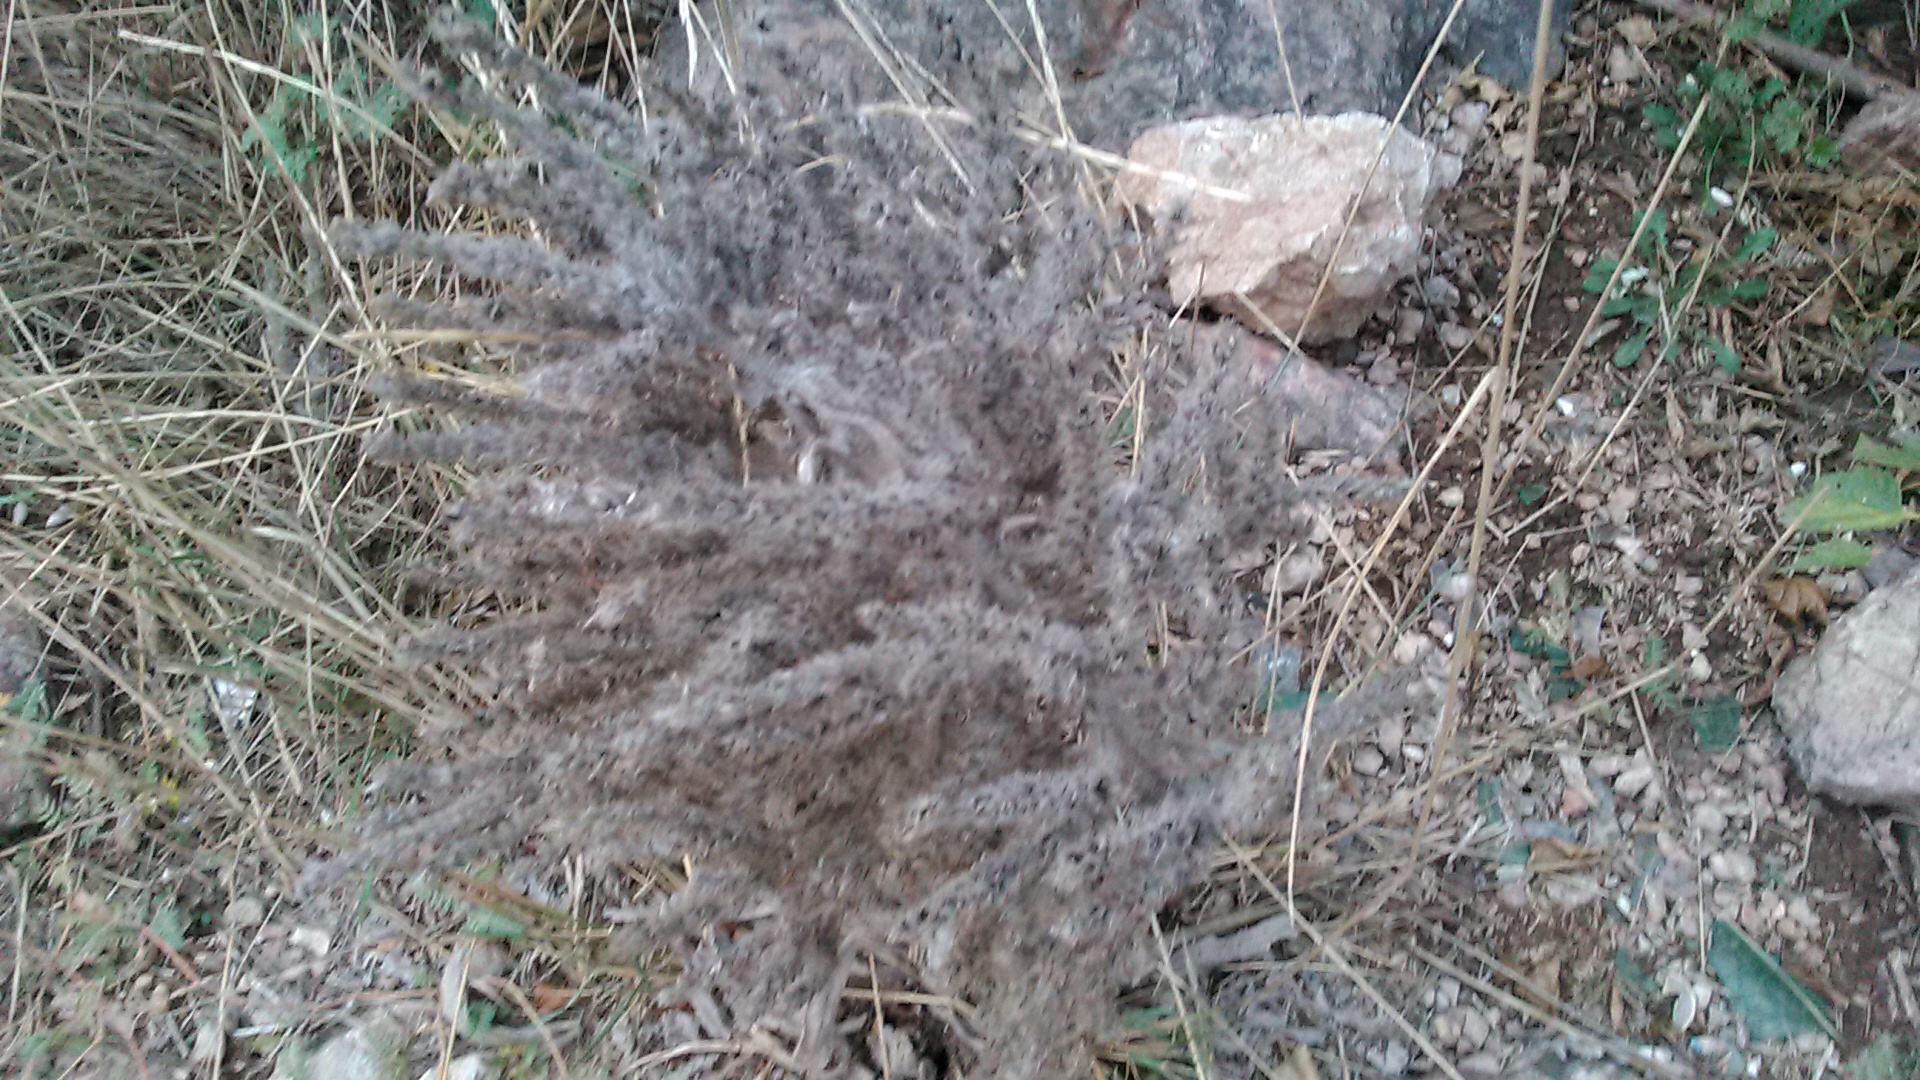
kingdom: Plantae
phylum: Tracheophyta
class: Magnoliopsida
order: Boraginales
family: Boraginaceae
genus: Echium
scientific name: Echium italicum
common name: Italian viper's bugloss
